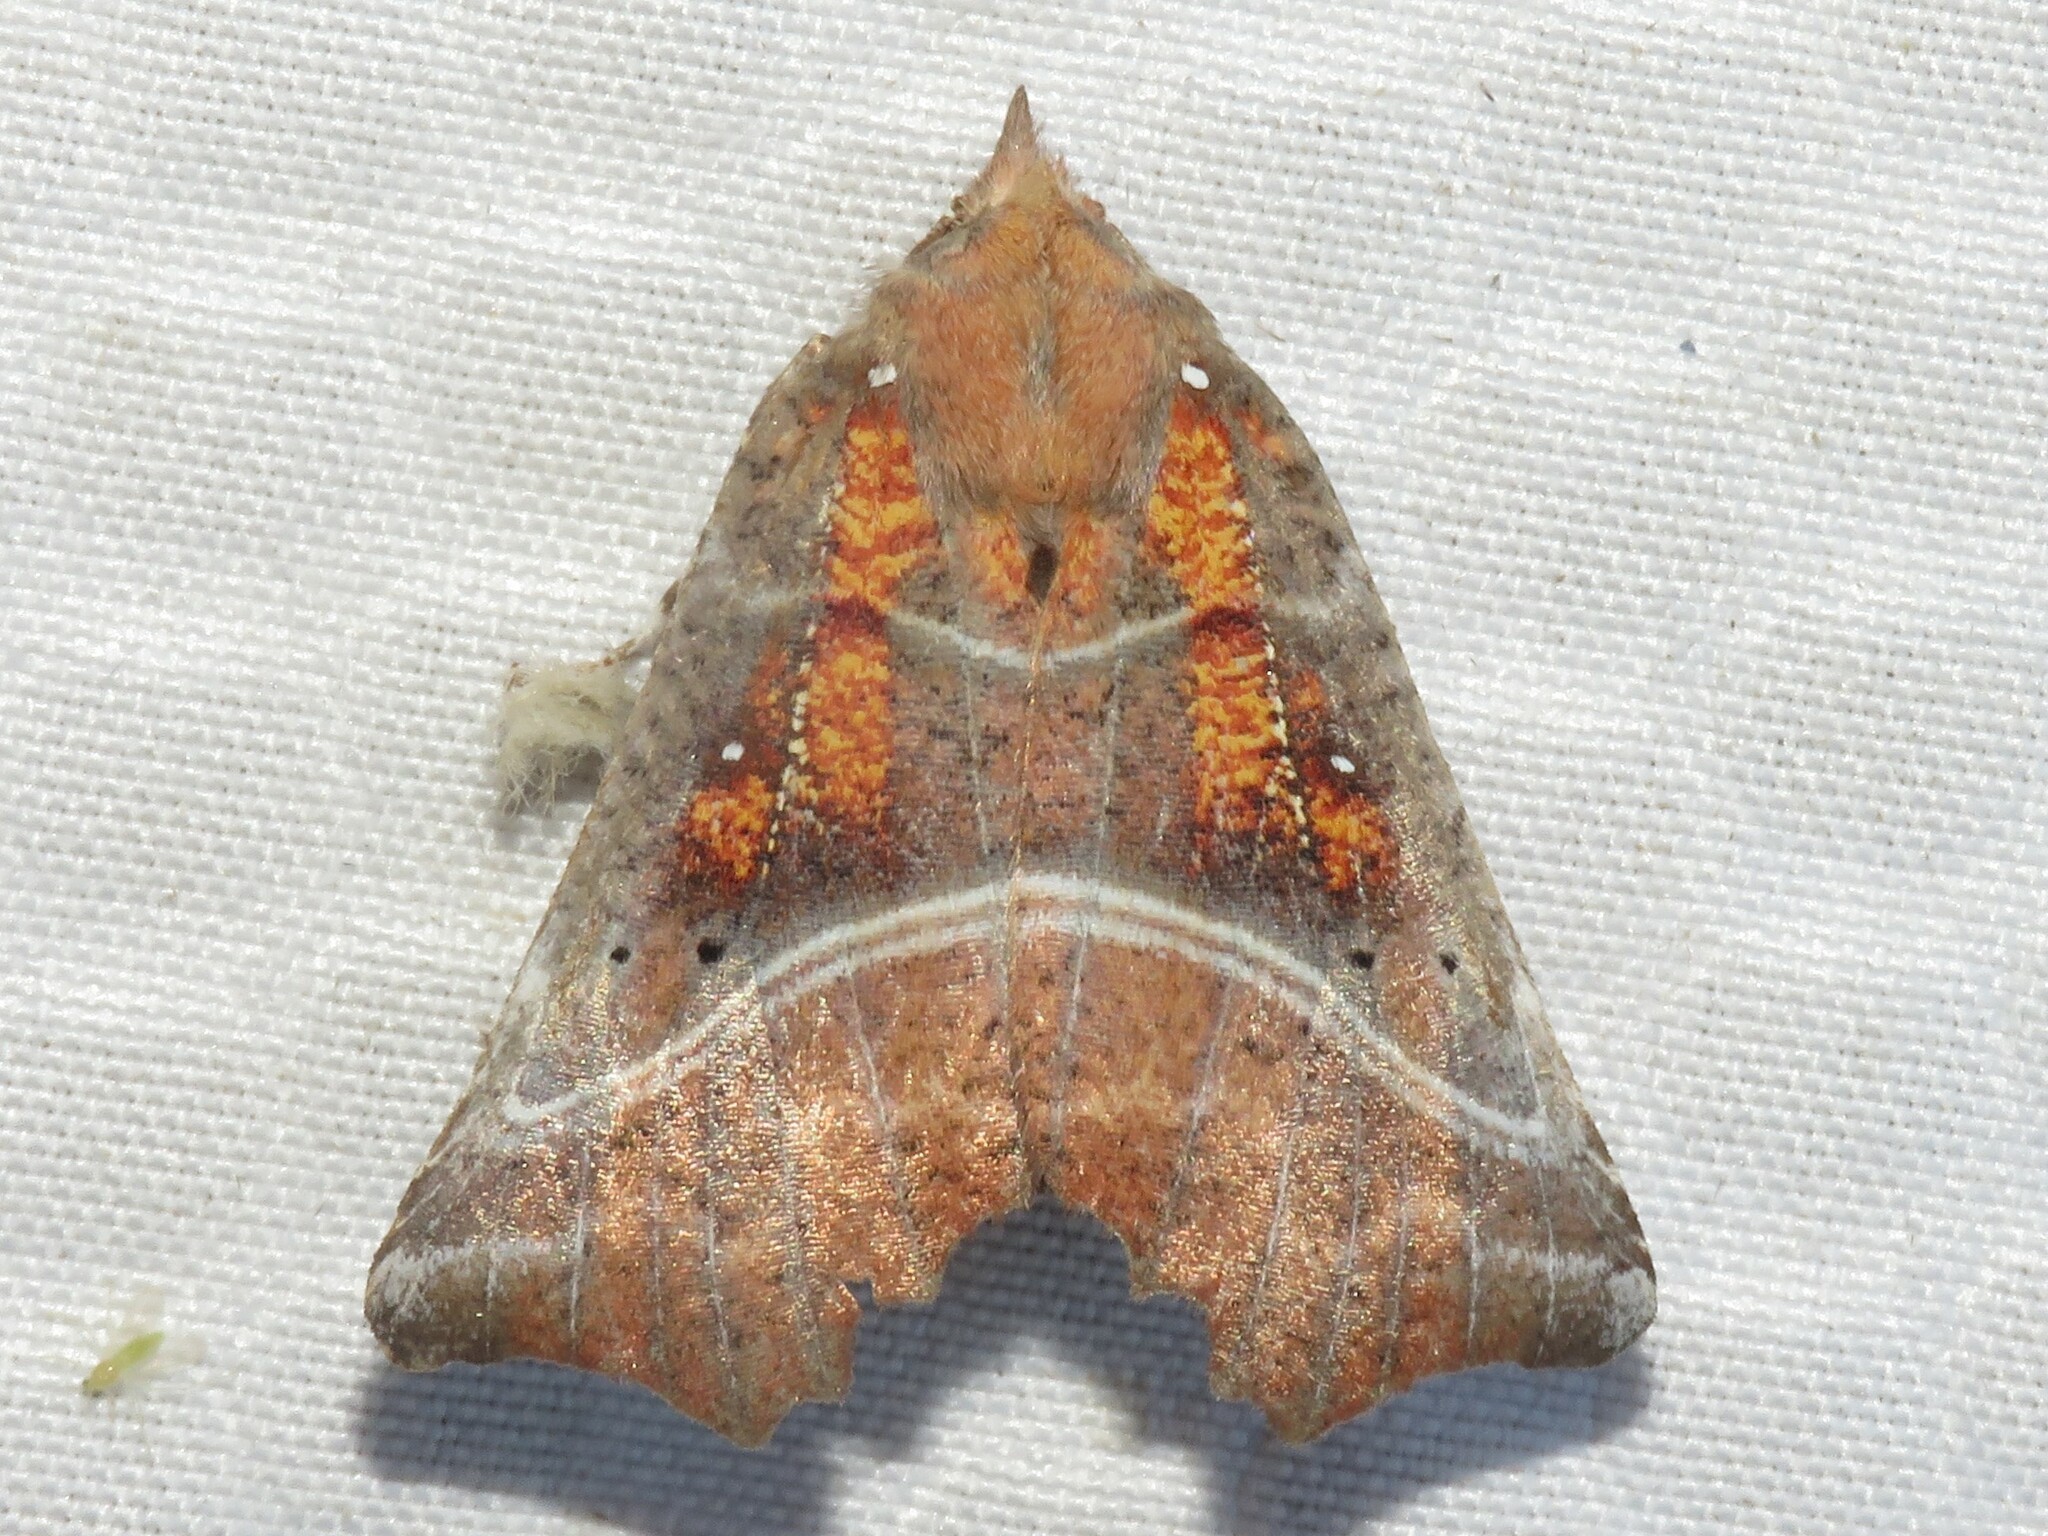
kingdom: Animalia
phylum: Arthropoda
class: Insecta
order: Lepidoptera
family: Erebidae
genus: Scoliopteryx
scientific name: Scoliopteryx libatrix
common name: Herald
